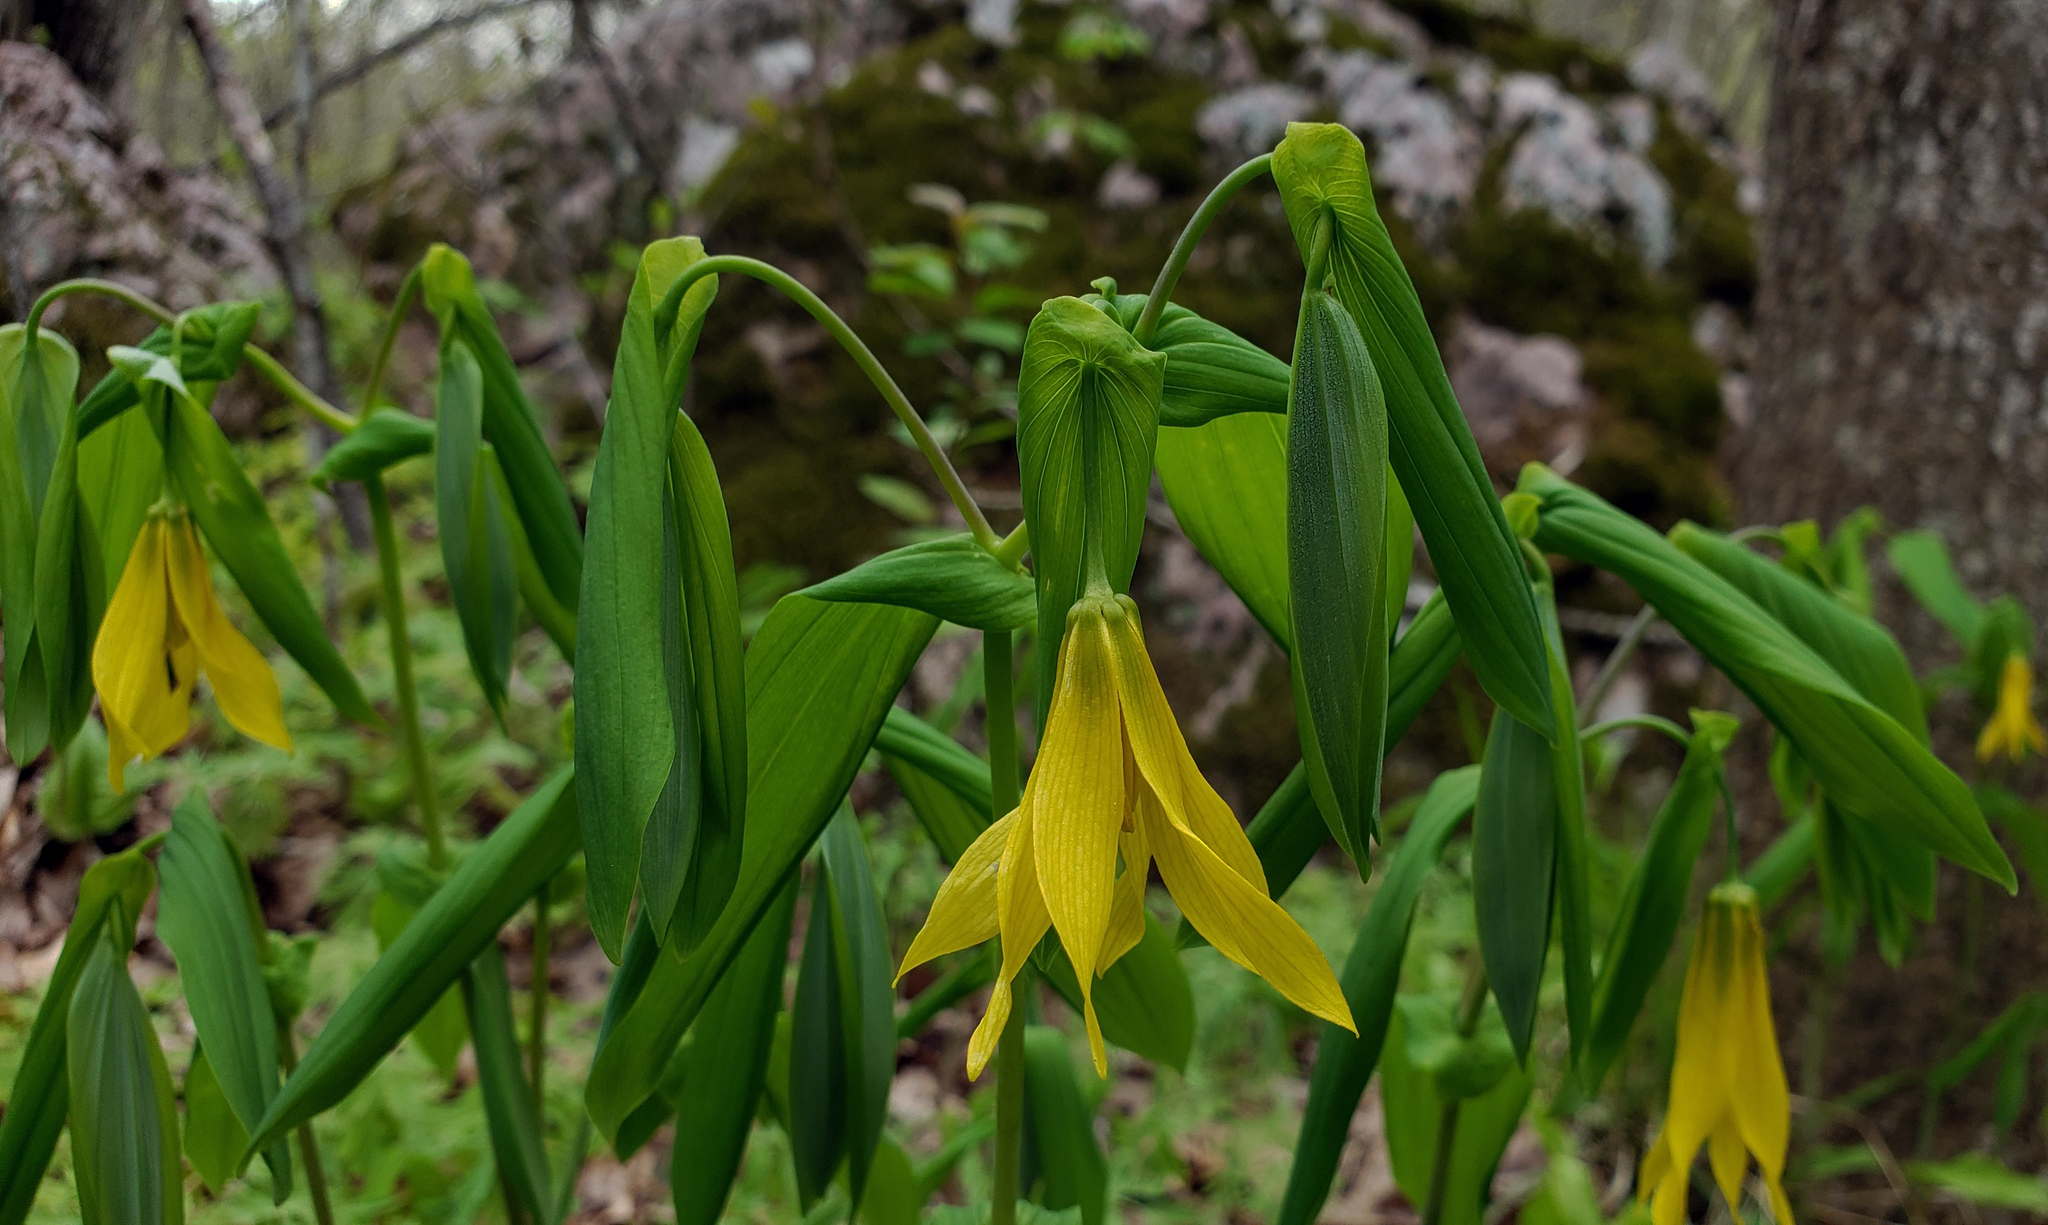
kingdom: Plantae
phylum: Tracheophyta
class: Liliopsida
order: Liliales
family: Colchicaceae
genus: Uvularia
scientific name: Uvularia grandiflora
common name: Bellwort
